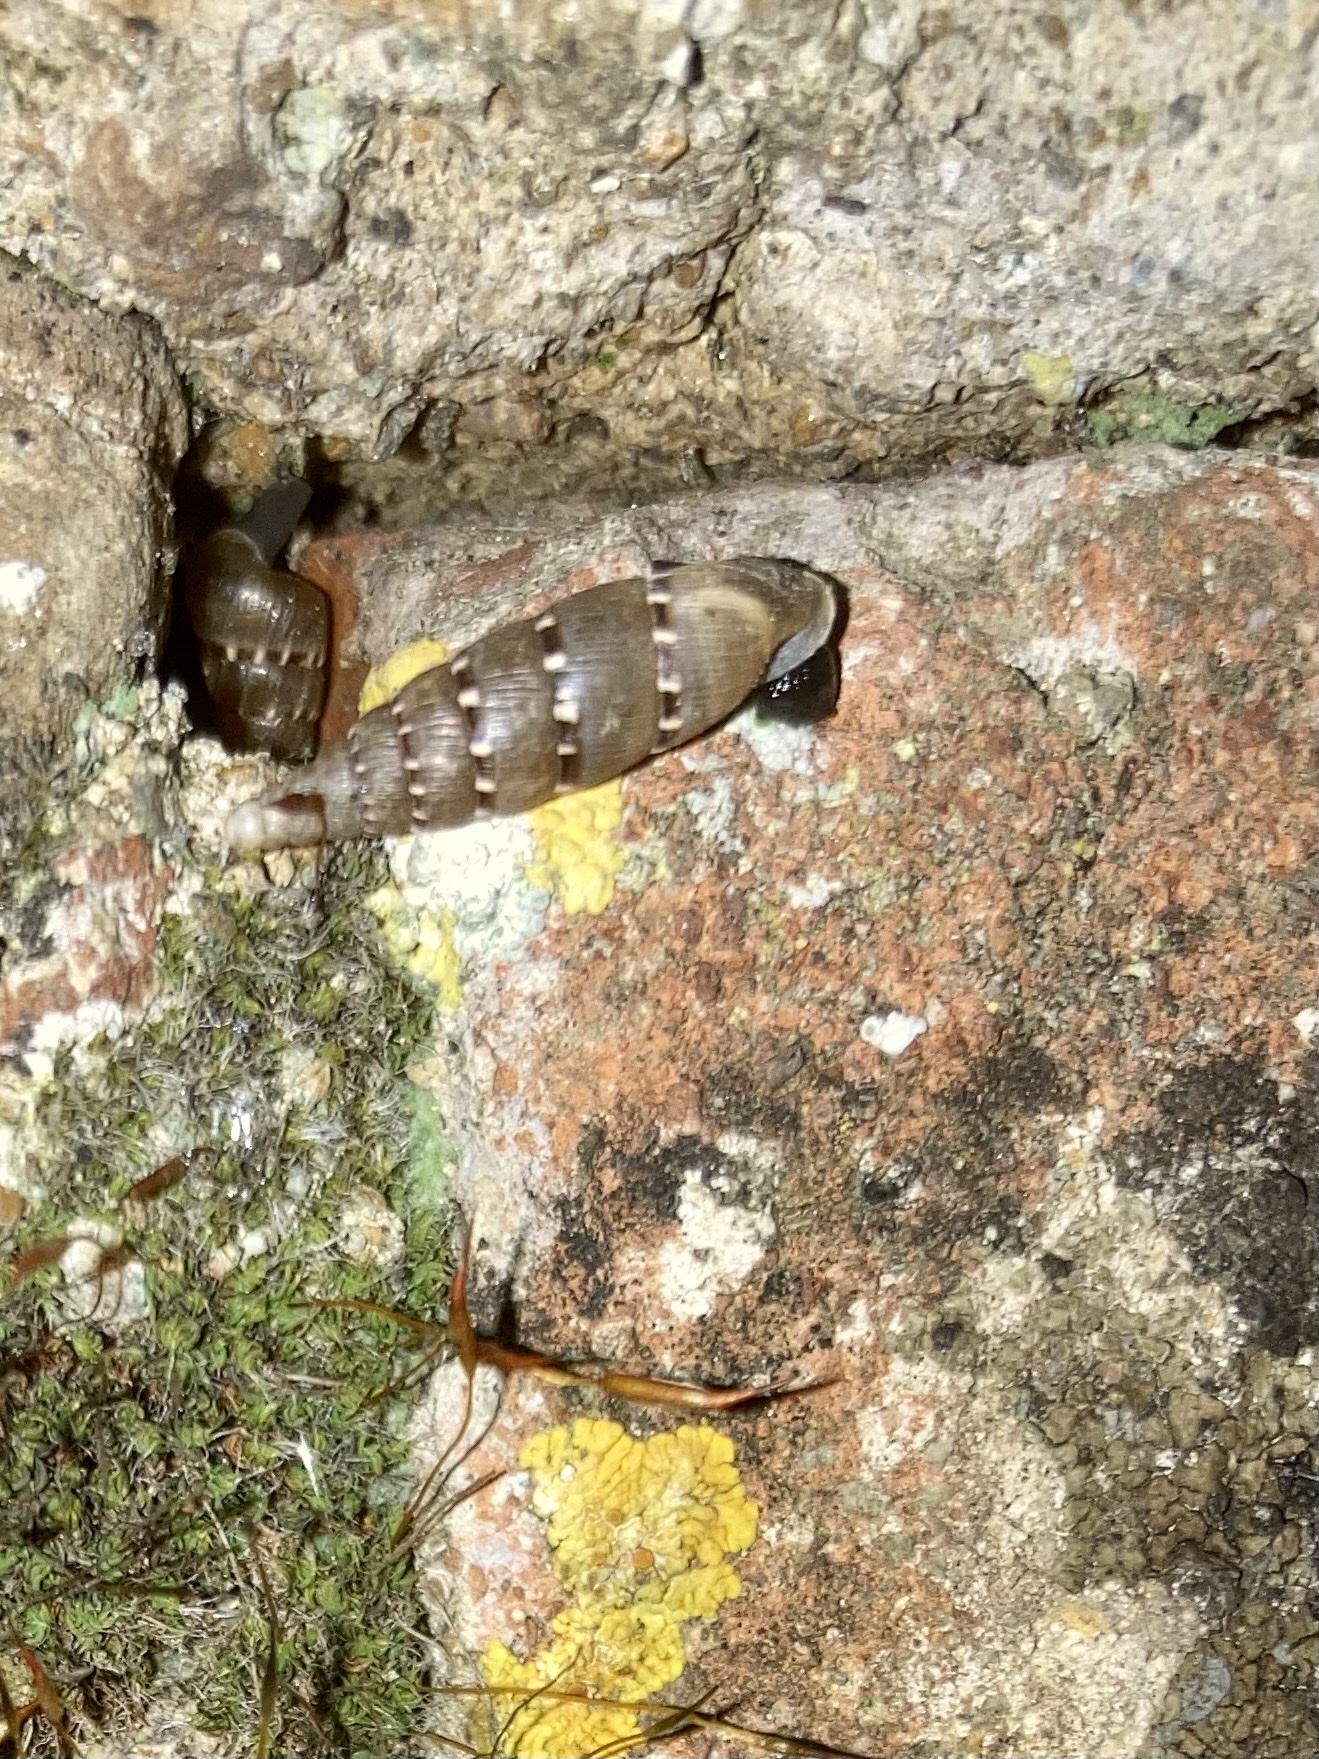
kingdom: Animalia
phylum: Mollusca
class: Gastropoda
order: Stylommatophora
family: Clausiliidae
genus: Papillifera
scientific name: Papillifera papillaris
